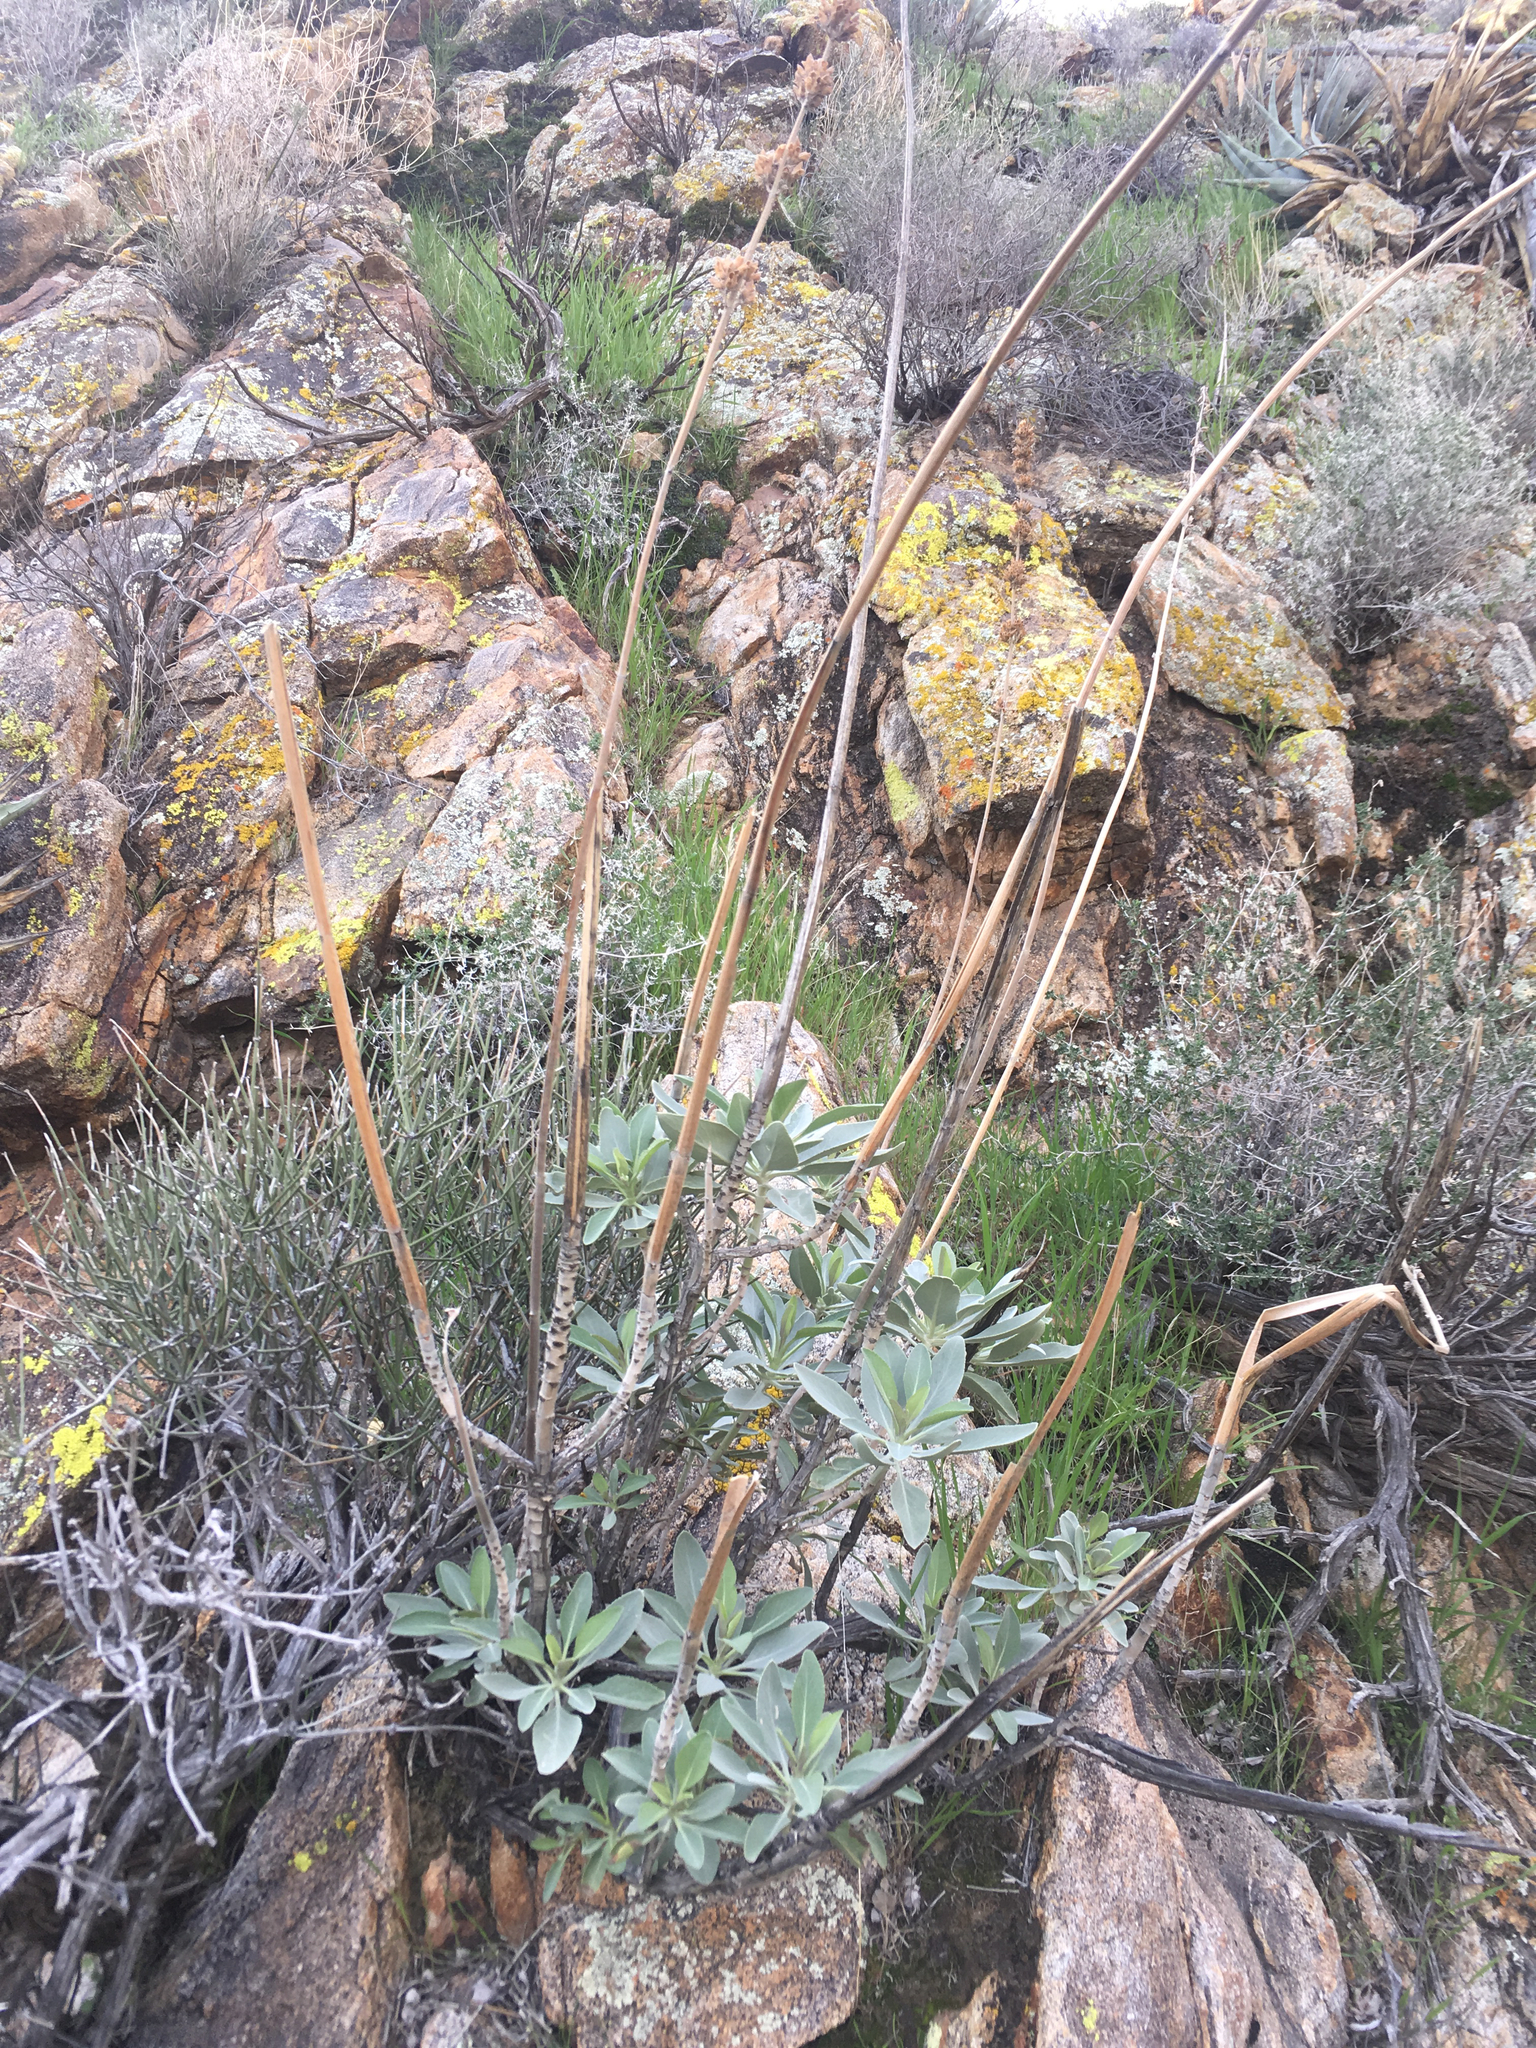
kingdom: Plantae
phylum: Tracheophyta
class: Magnoliopsida
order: Lamiales
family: Lamiaceae
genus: Salvia
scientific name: Salvia apiana
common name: White sage
